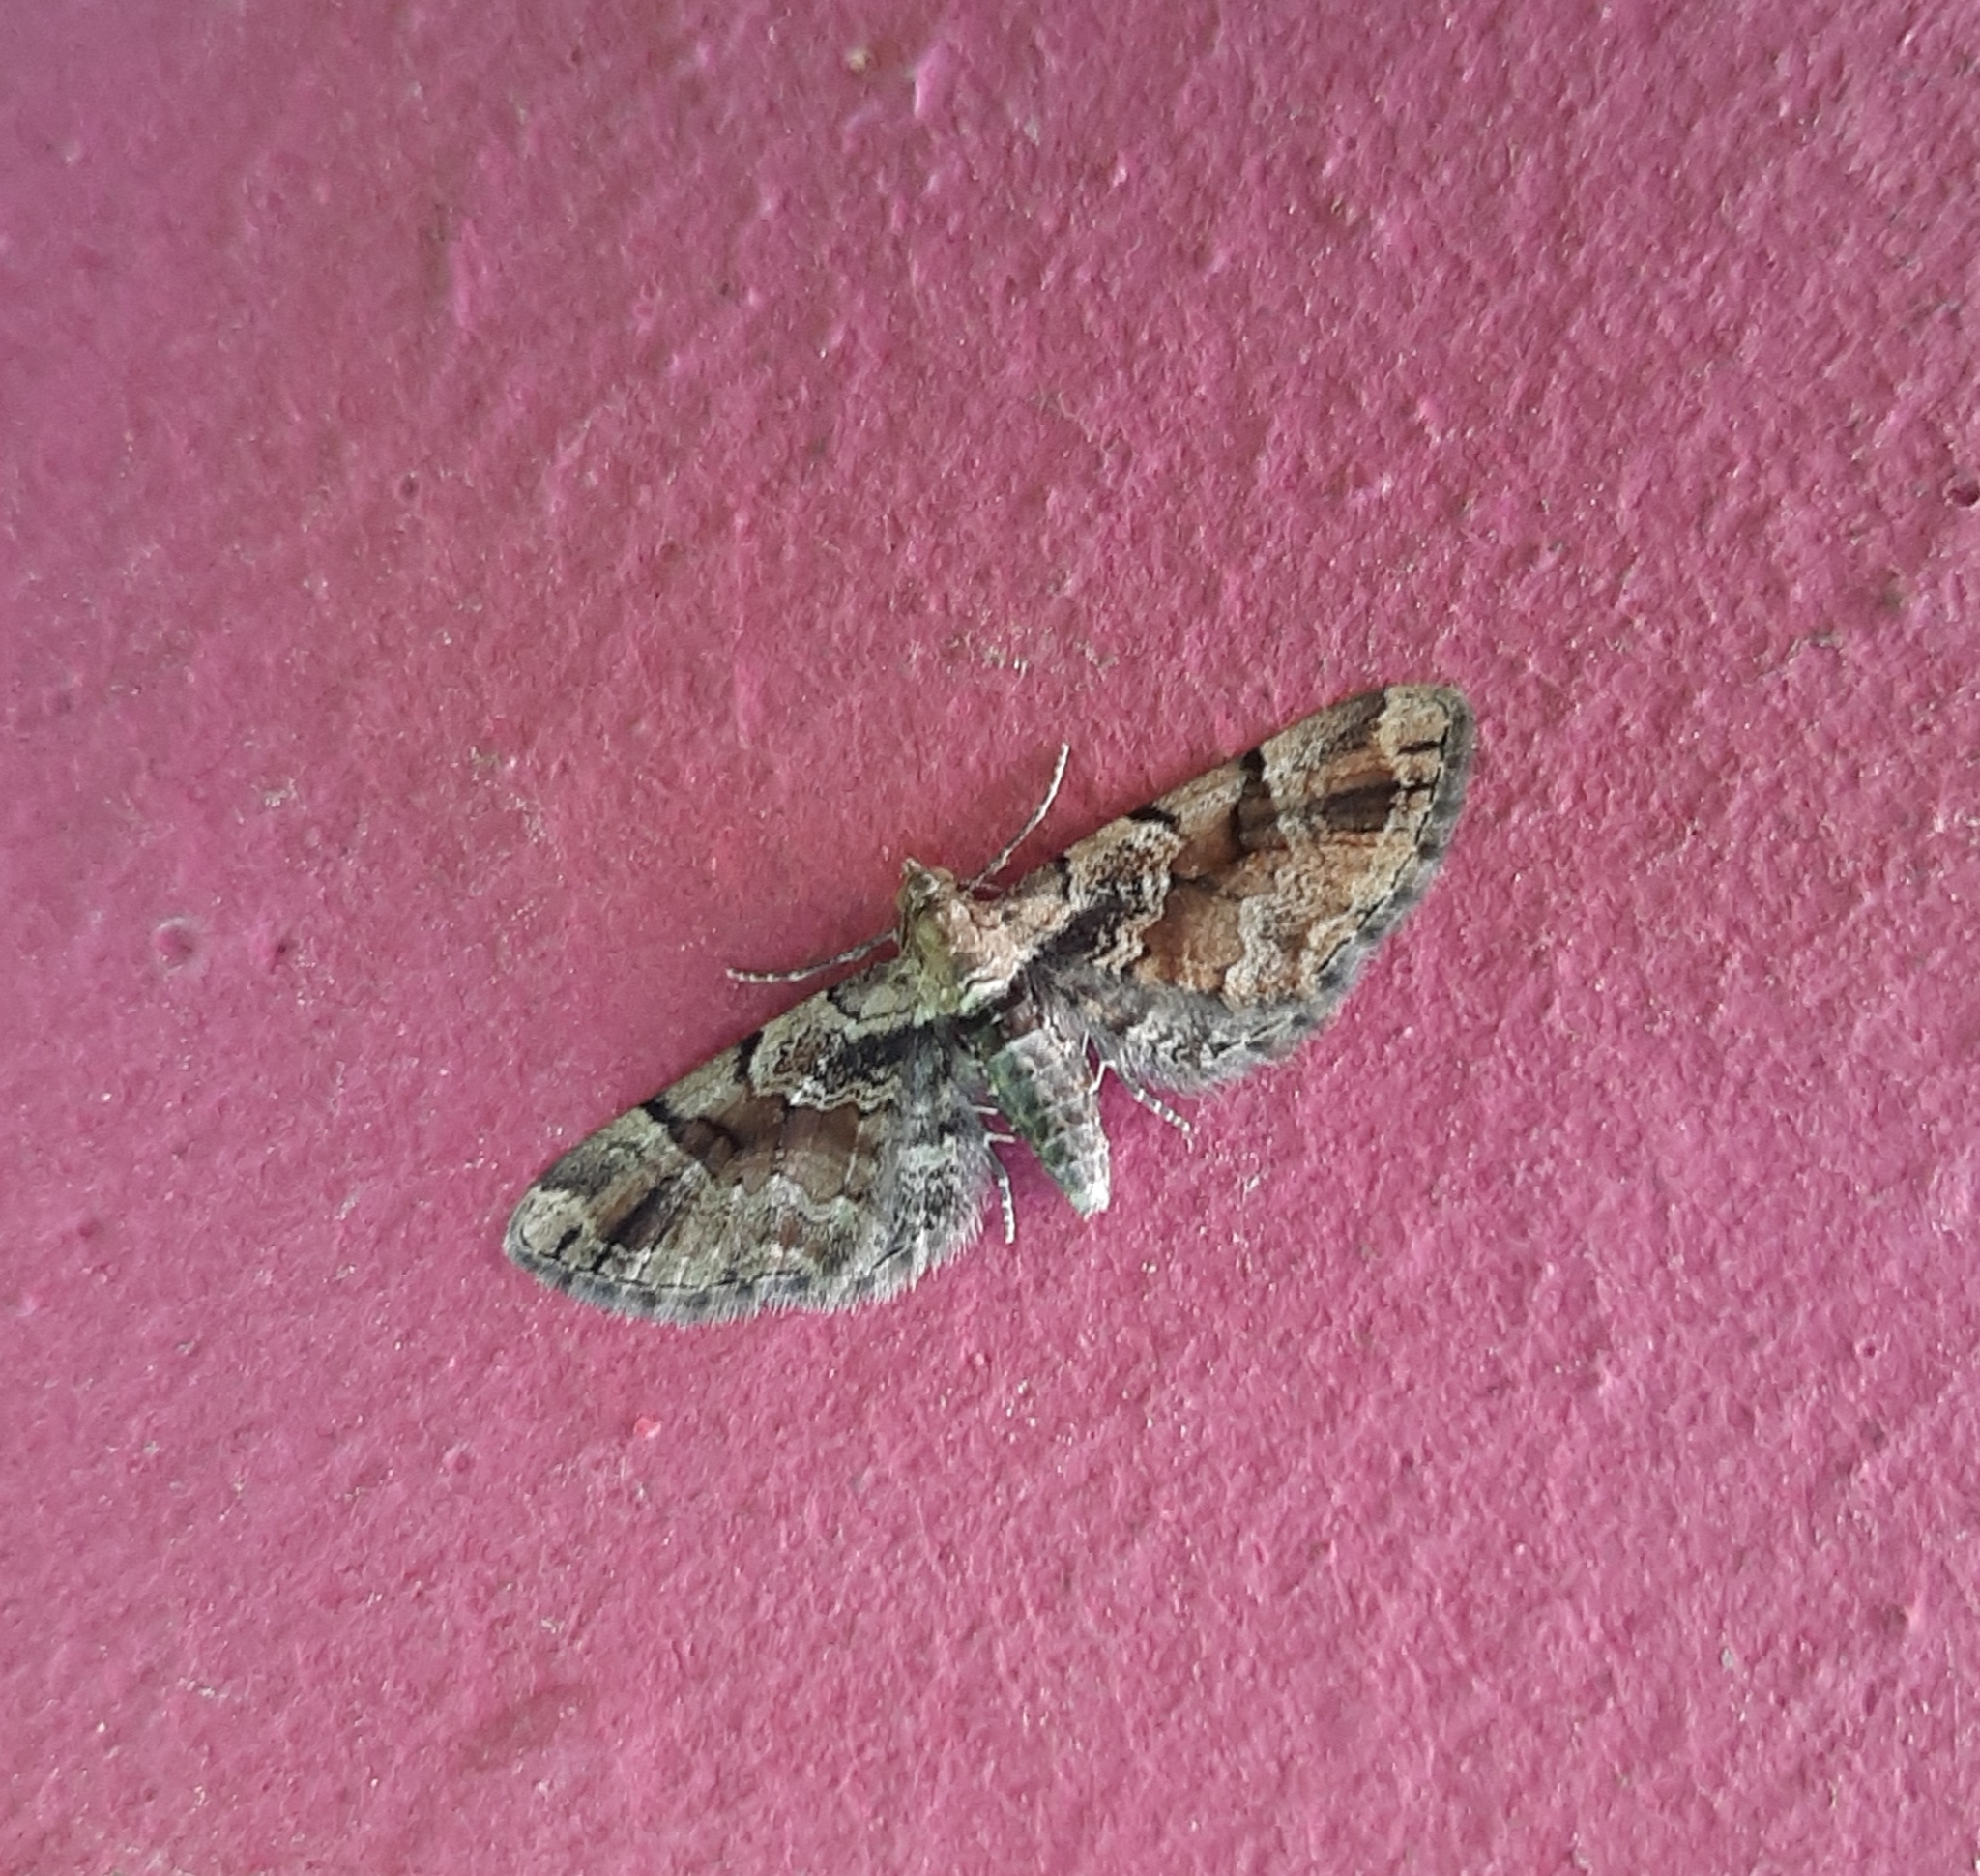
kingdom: Animalia
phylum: Arthropoda
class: Insecta
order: Lepidoptera
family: Geometridae
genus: Eupithecia
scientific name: Eupithecia sinuosaria
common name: Goosefoot pug
